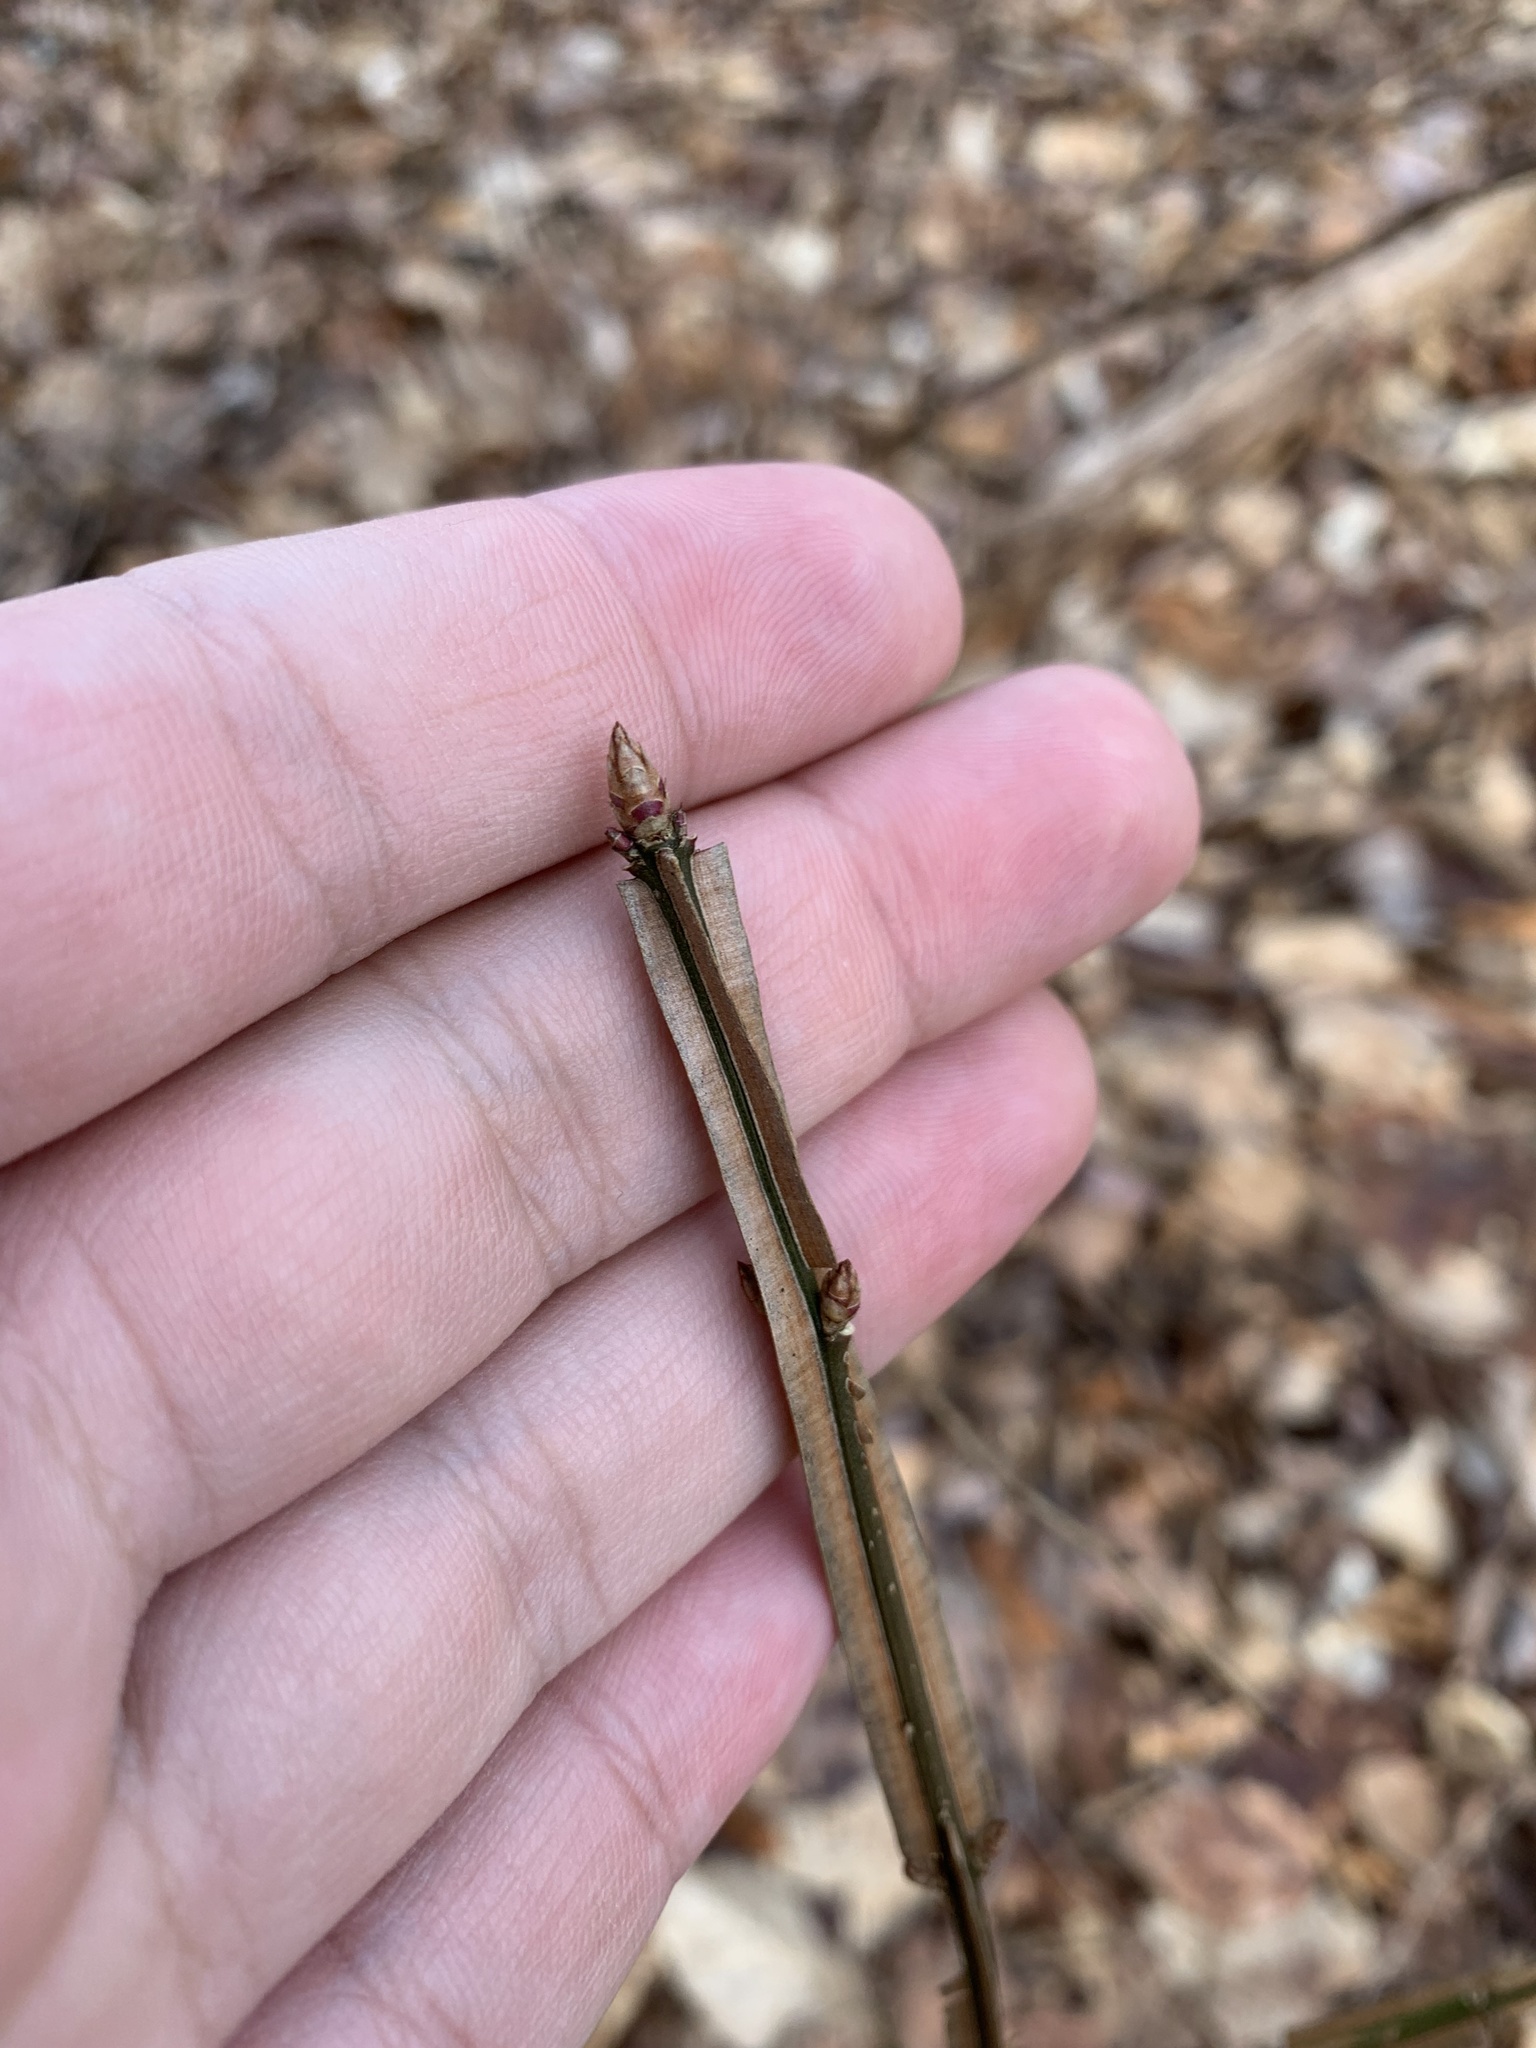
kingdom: Plantae
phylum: Tracheophyta
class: Magnoliopsida
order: Celastrales
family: Celastraceae
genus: Euonymus
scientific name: Euonymus alatus
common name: Winged euonymus
